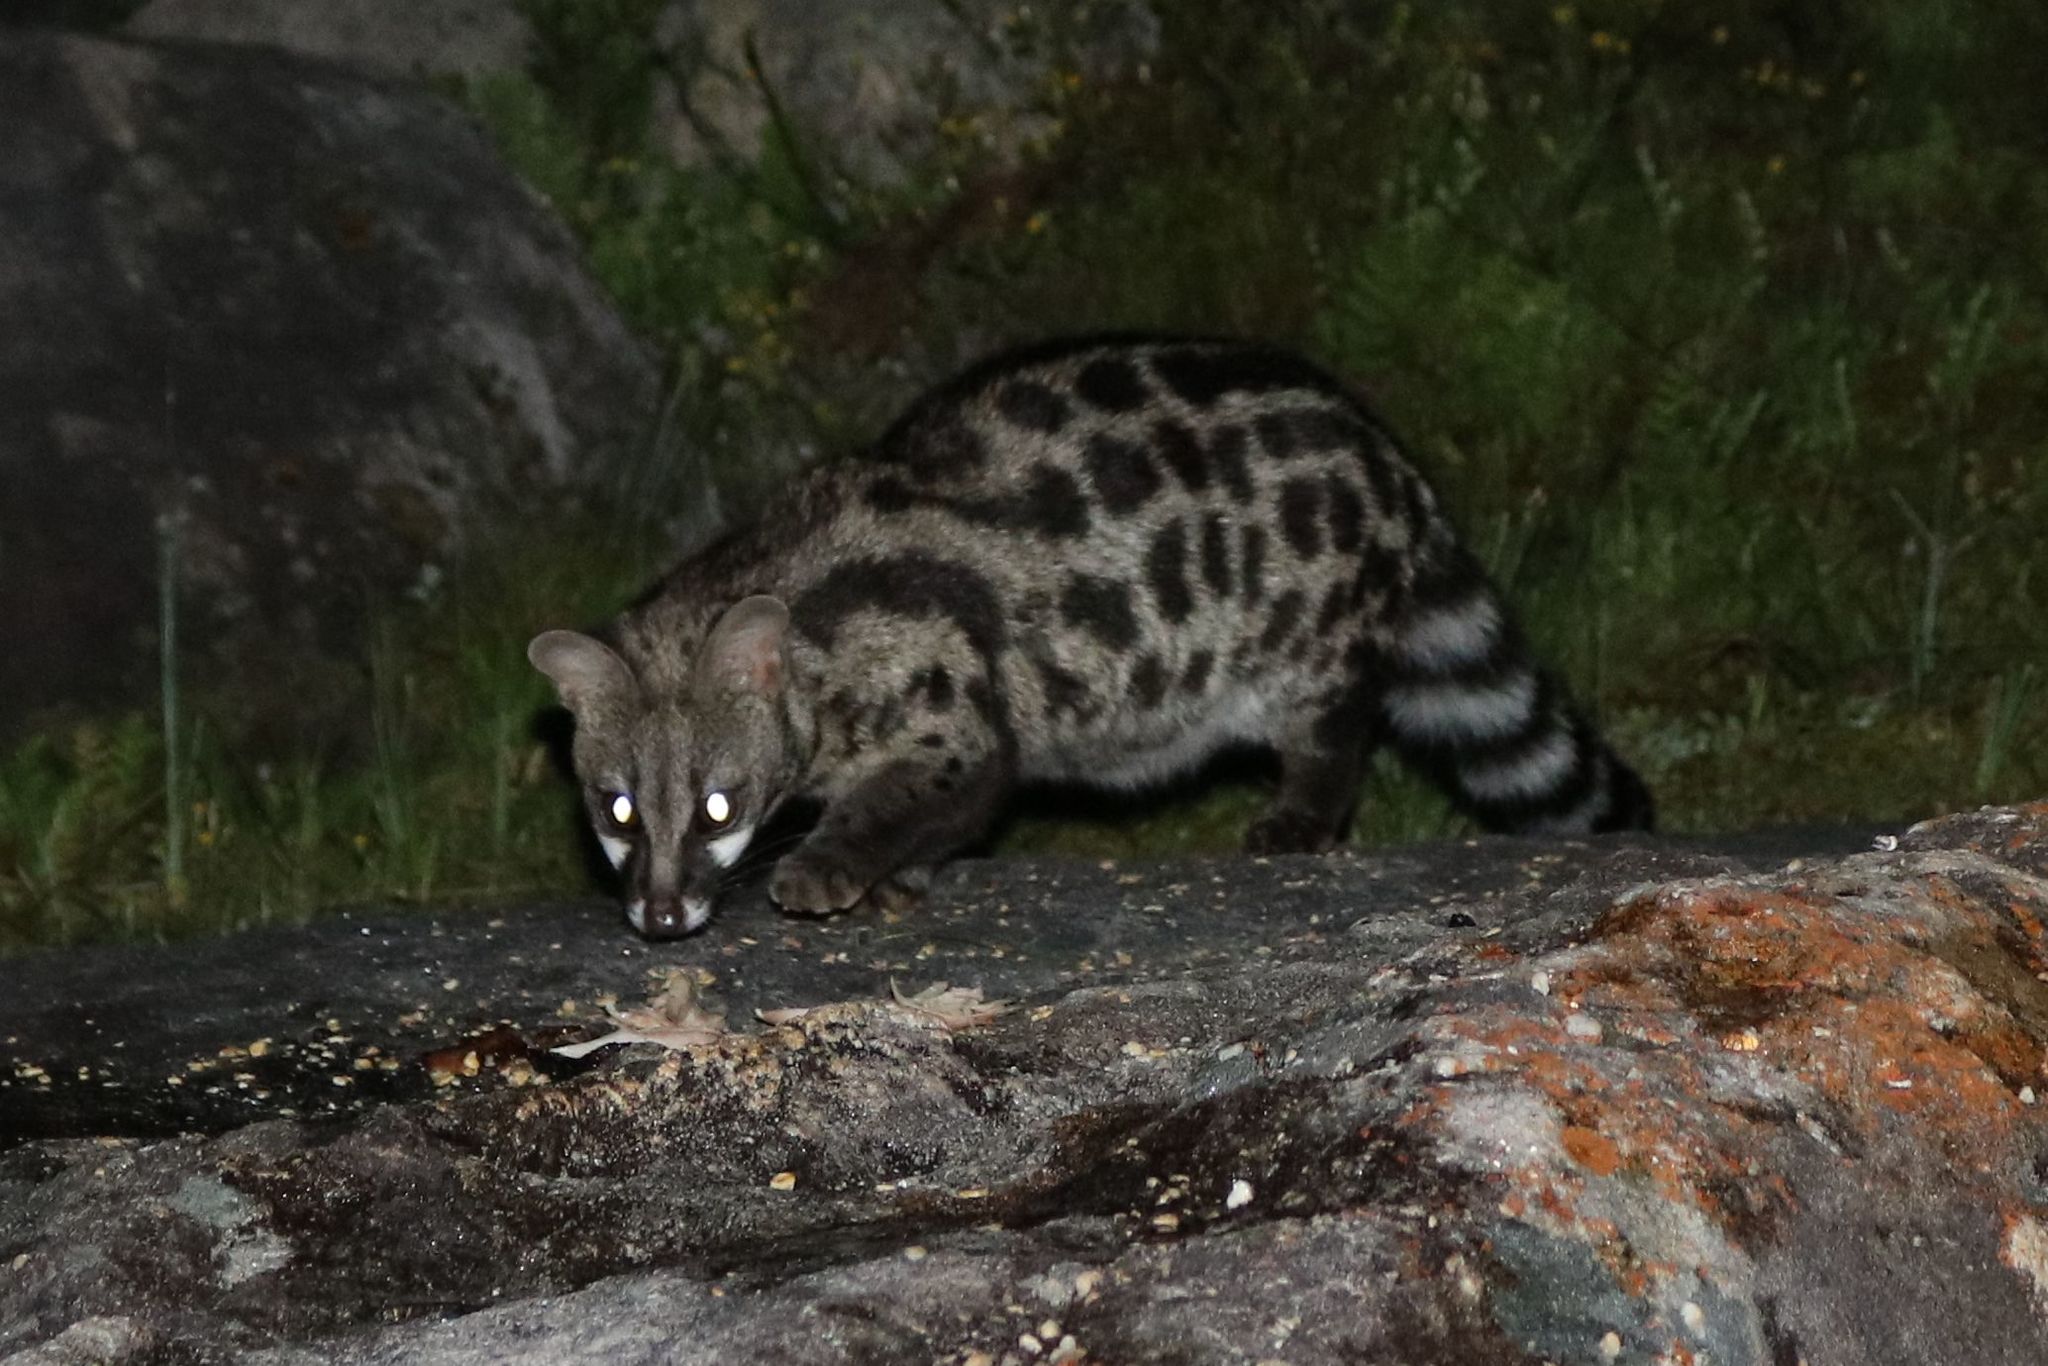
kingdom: Animalia
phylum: Chordata
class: Mammalia
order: Carnivora
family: Viverridae
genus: Genetta
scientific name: Genetta tigrina
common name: Cape genet
